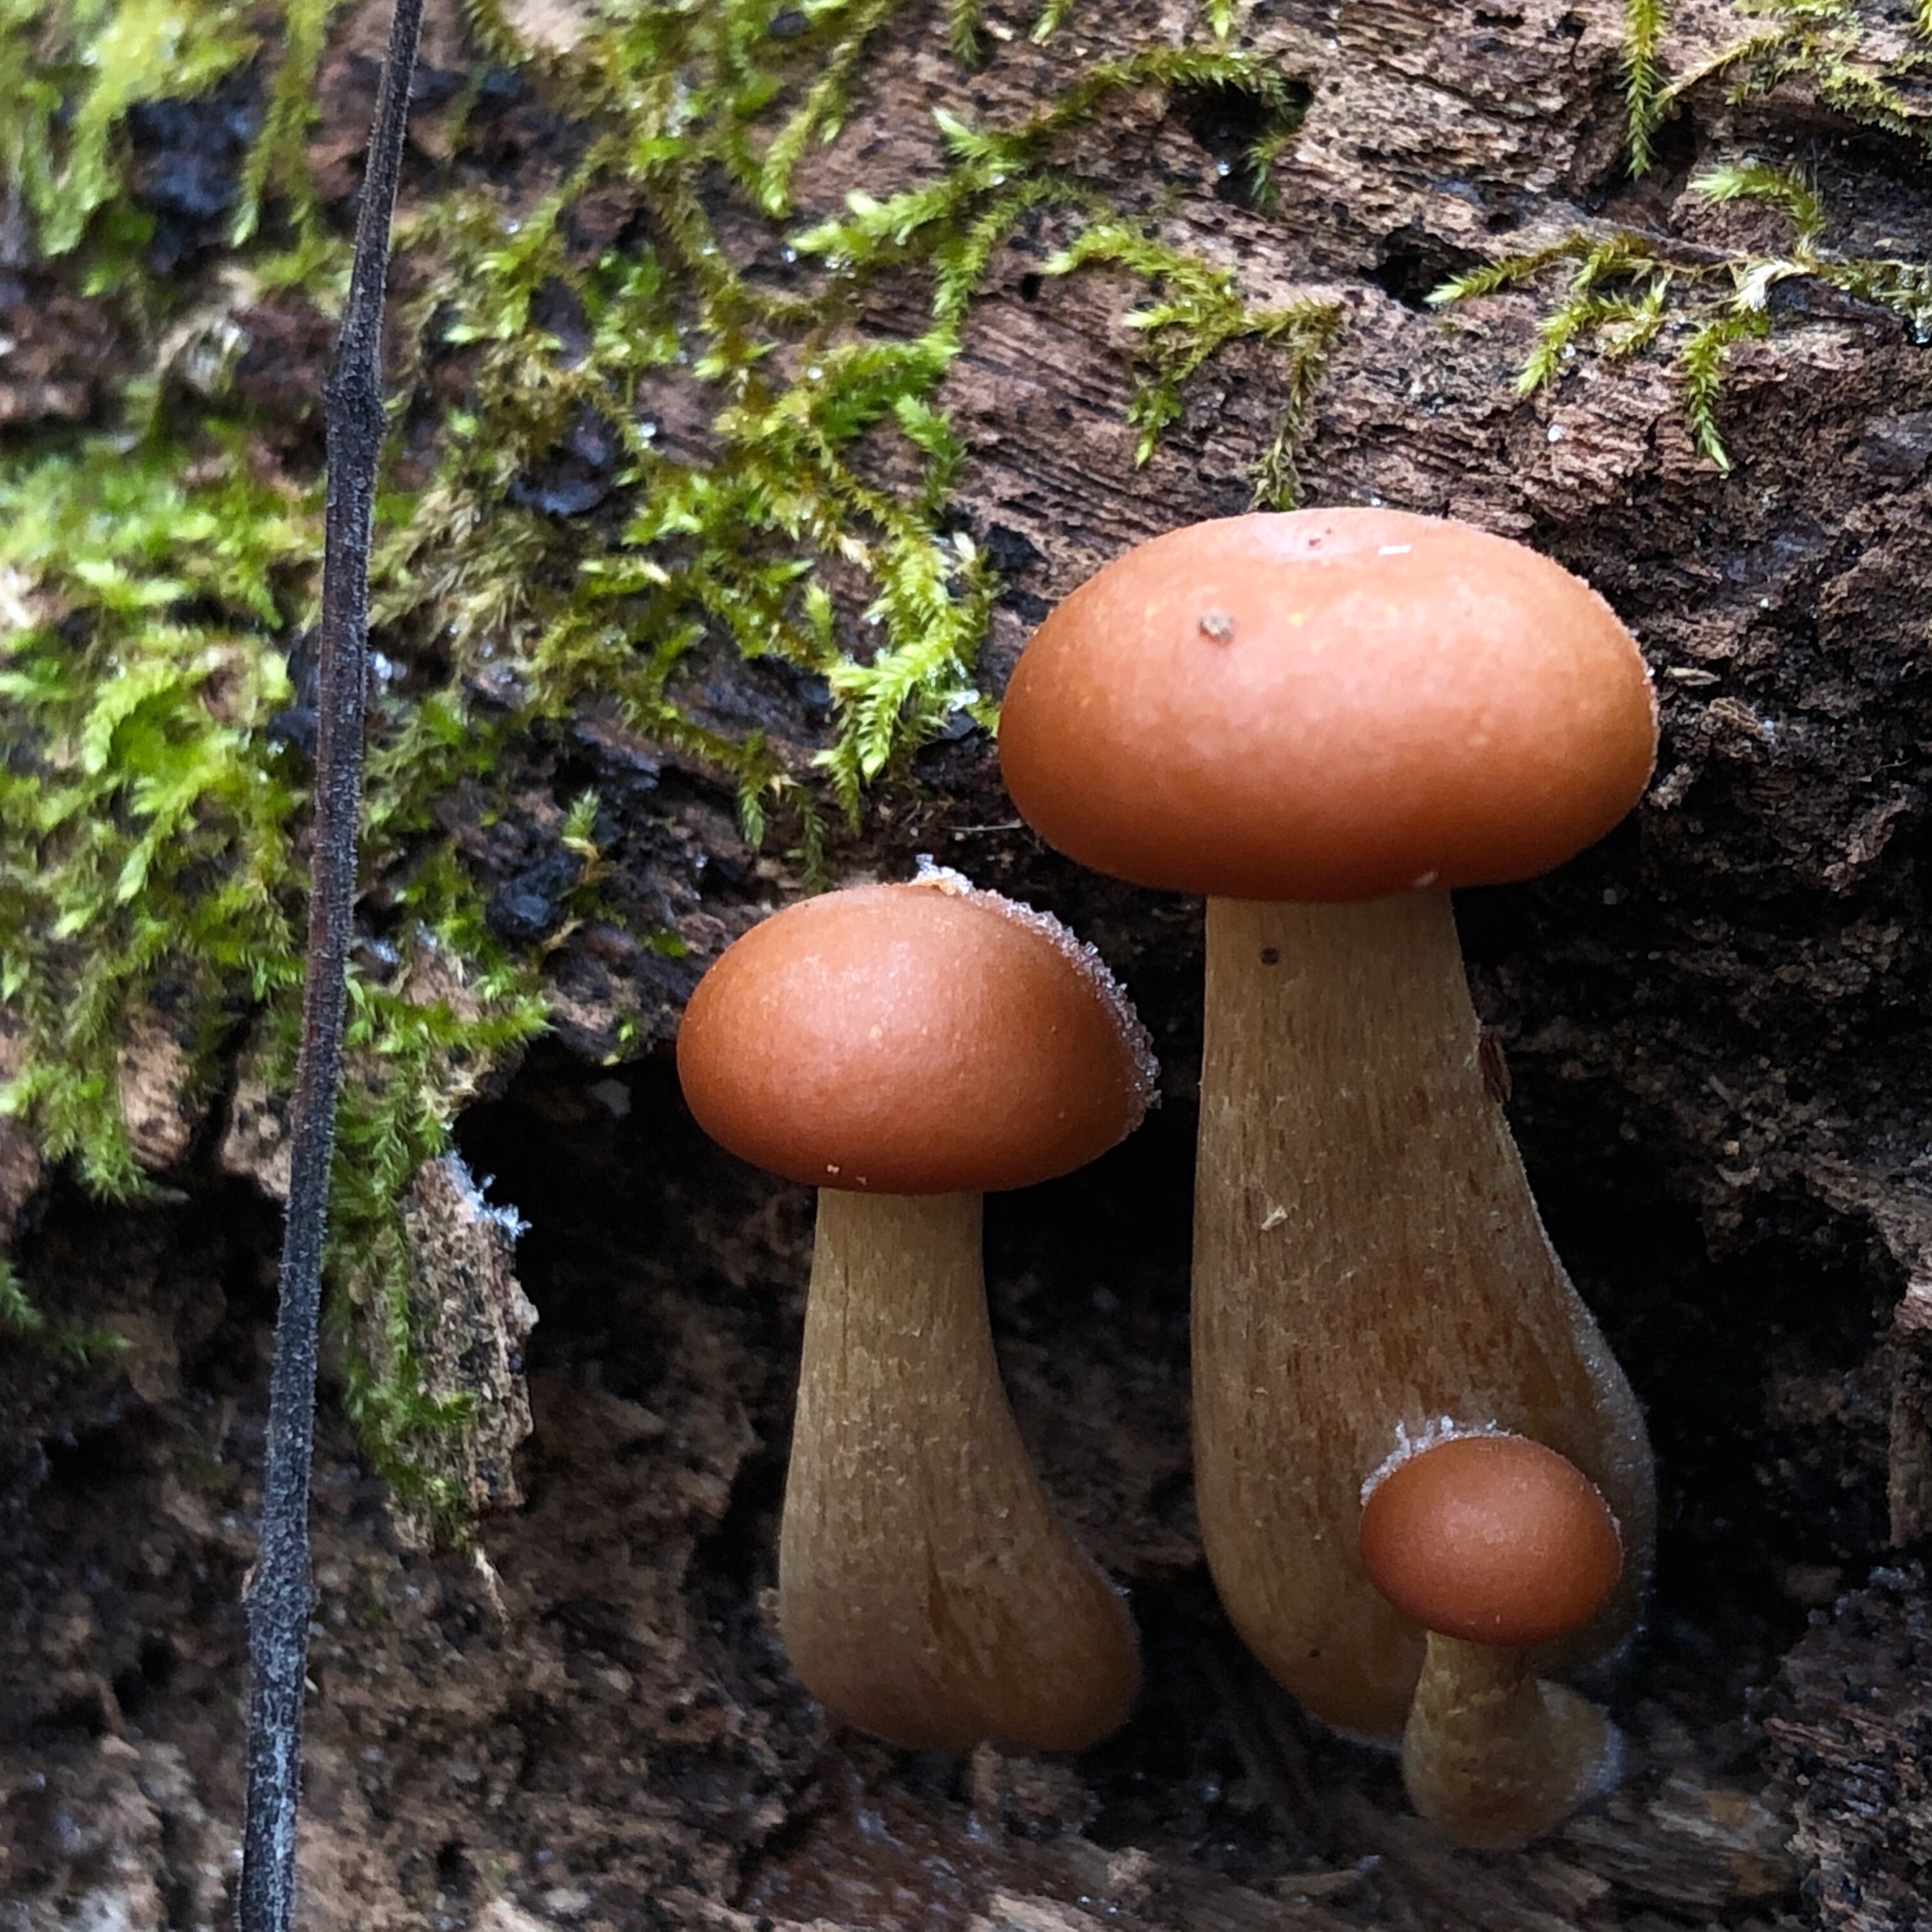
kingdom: Fungi
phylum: Basidiomycota
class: Agaricomycetes
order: Agaricales
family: Hymenogastraceae
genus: Galerina
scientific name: Galerina marginata
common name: Funeral bell
